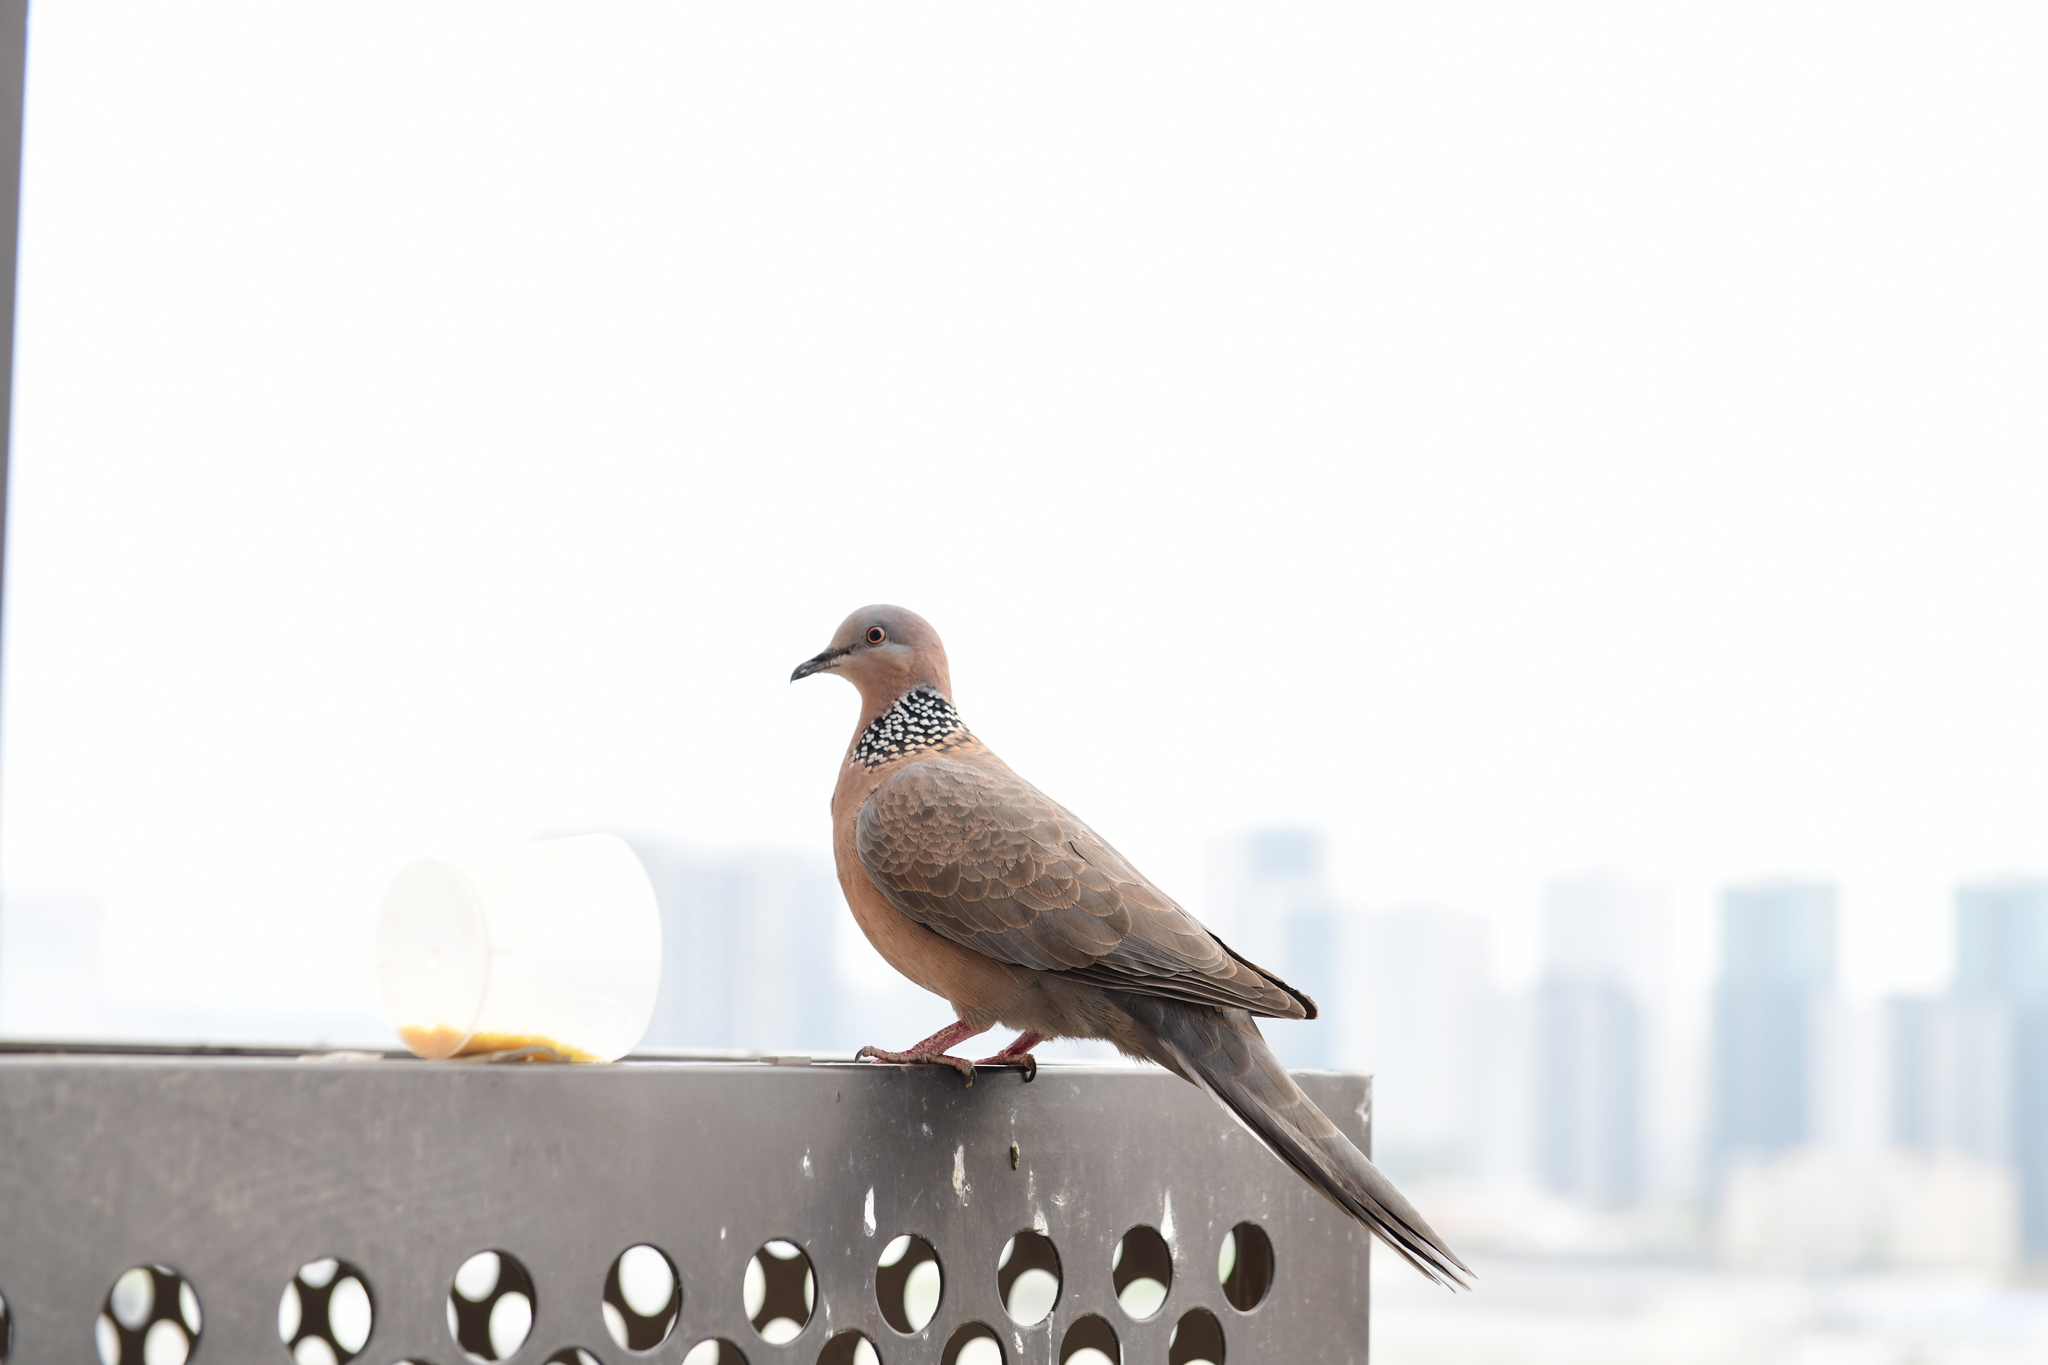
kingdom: Animalia
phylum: Chordata
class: Aves
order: Columbiformes
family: Columbidae
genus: Spilopelia
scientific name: Spilopelia chinensis
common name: Spotted dove
